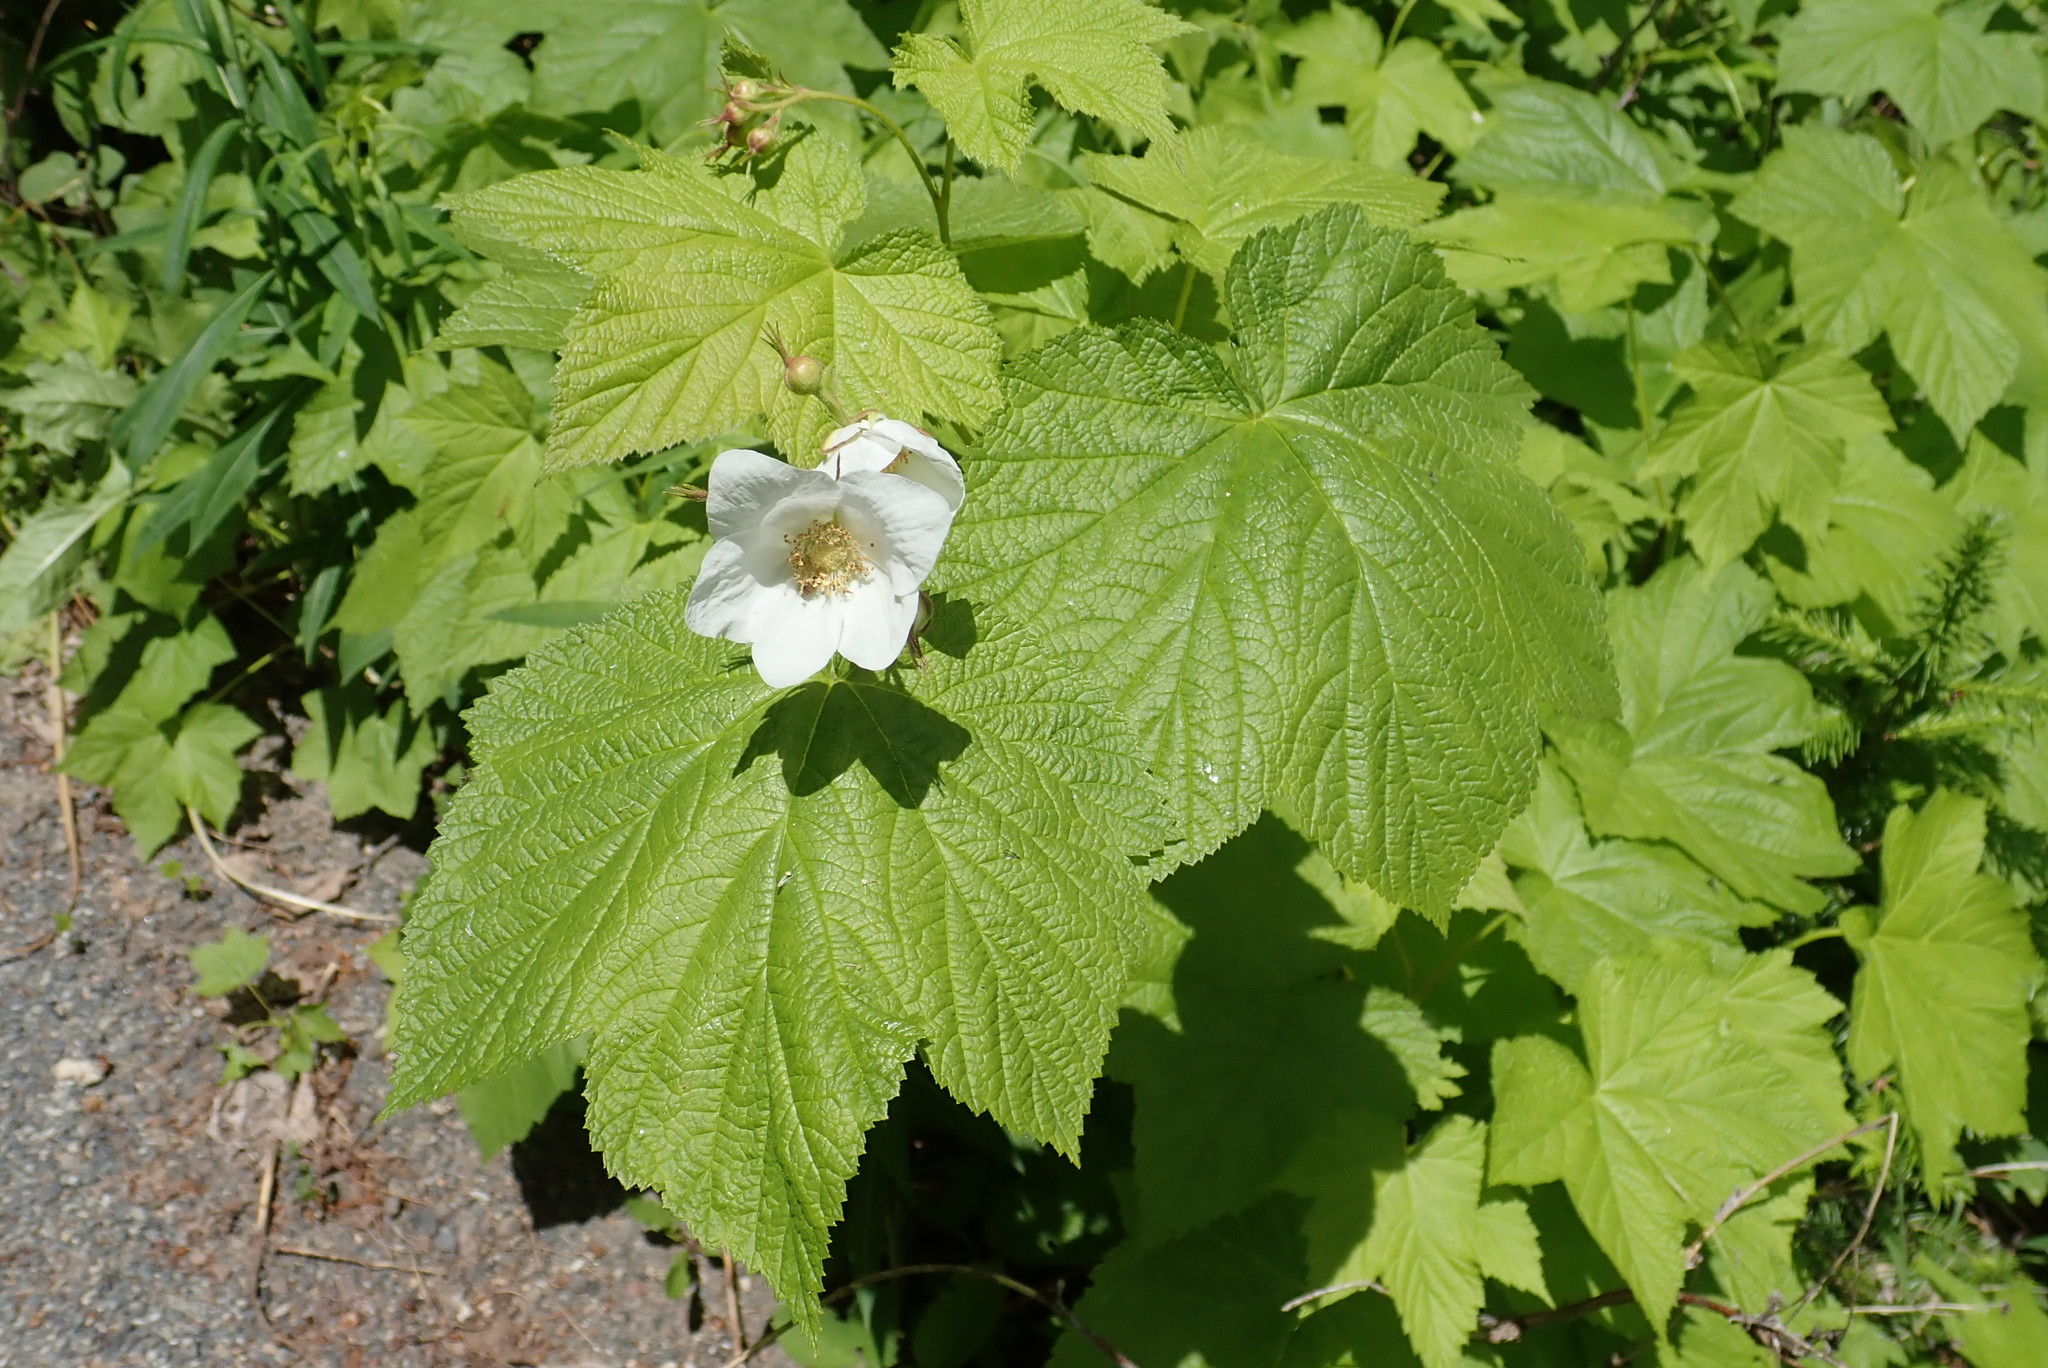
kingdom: Plantae
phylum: Tracheophyta
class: Magnoliopsida
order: Rosales
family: Rosaceae
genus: Rubus
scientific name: Rubus parviflorus
